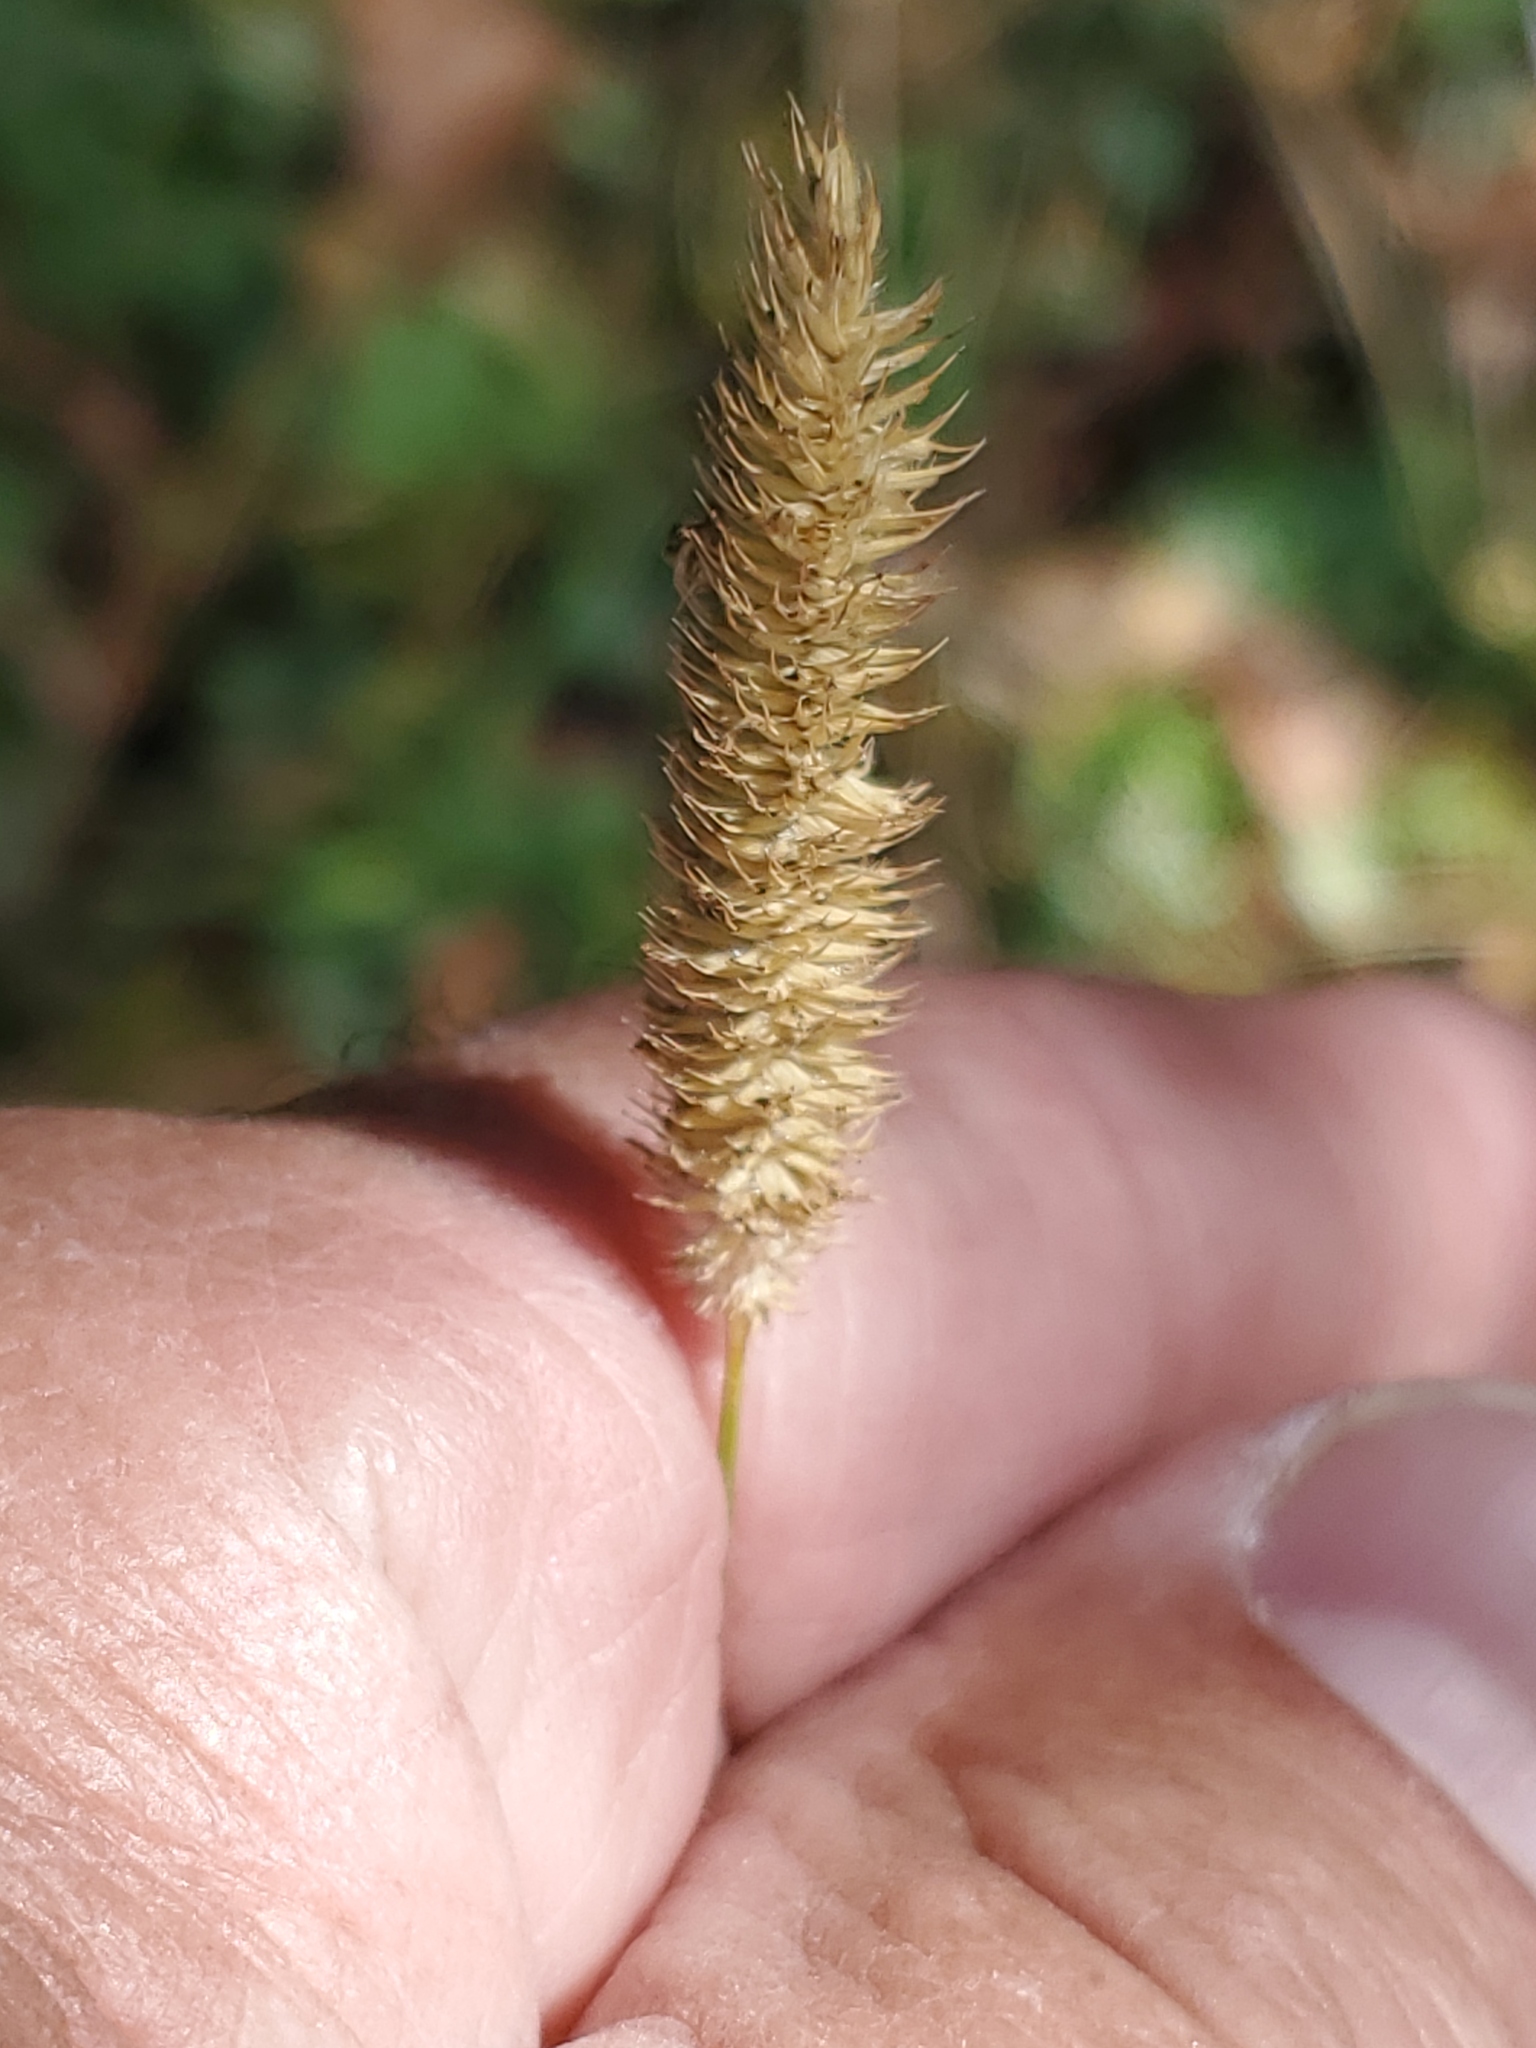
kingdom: Plantae
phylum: Tracheophyta
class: Liliopsida
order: Poales
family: Poaceae
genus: Phleum
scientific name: Phleum pratense
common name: Timothy grass
